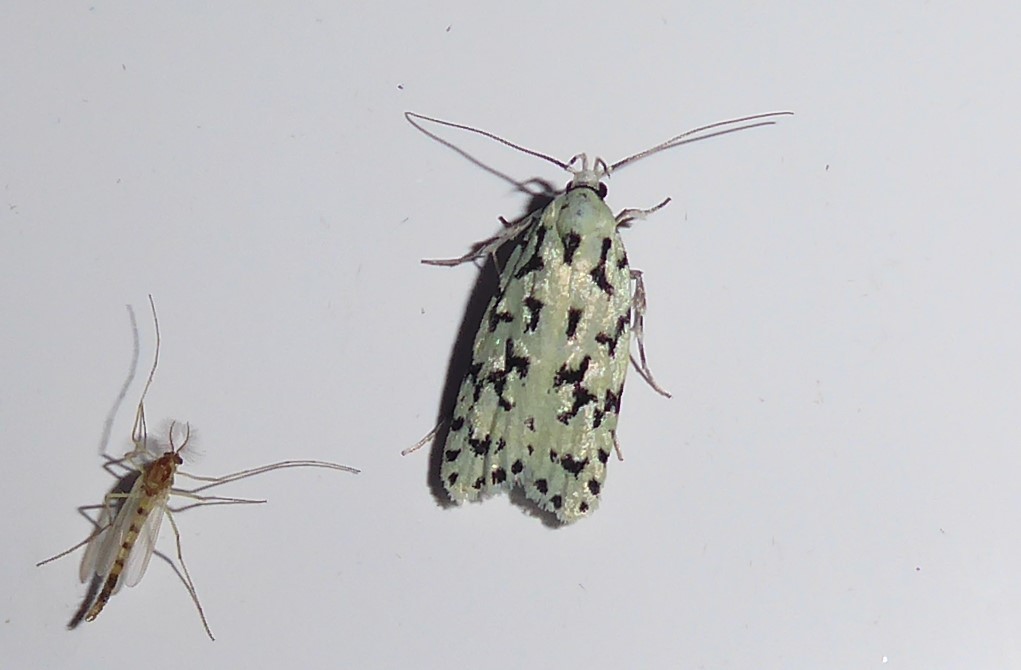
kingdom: Animalia
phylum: Arthropoda
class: Insecta
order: Lepidoptera
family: Oecophoridae
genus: Izatha
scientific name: Izatha huttoni
